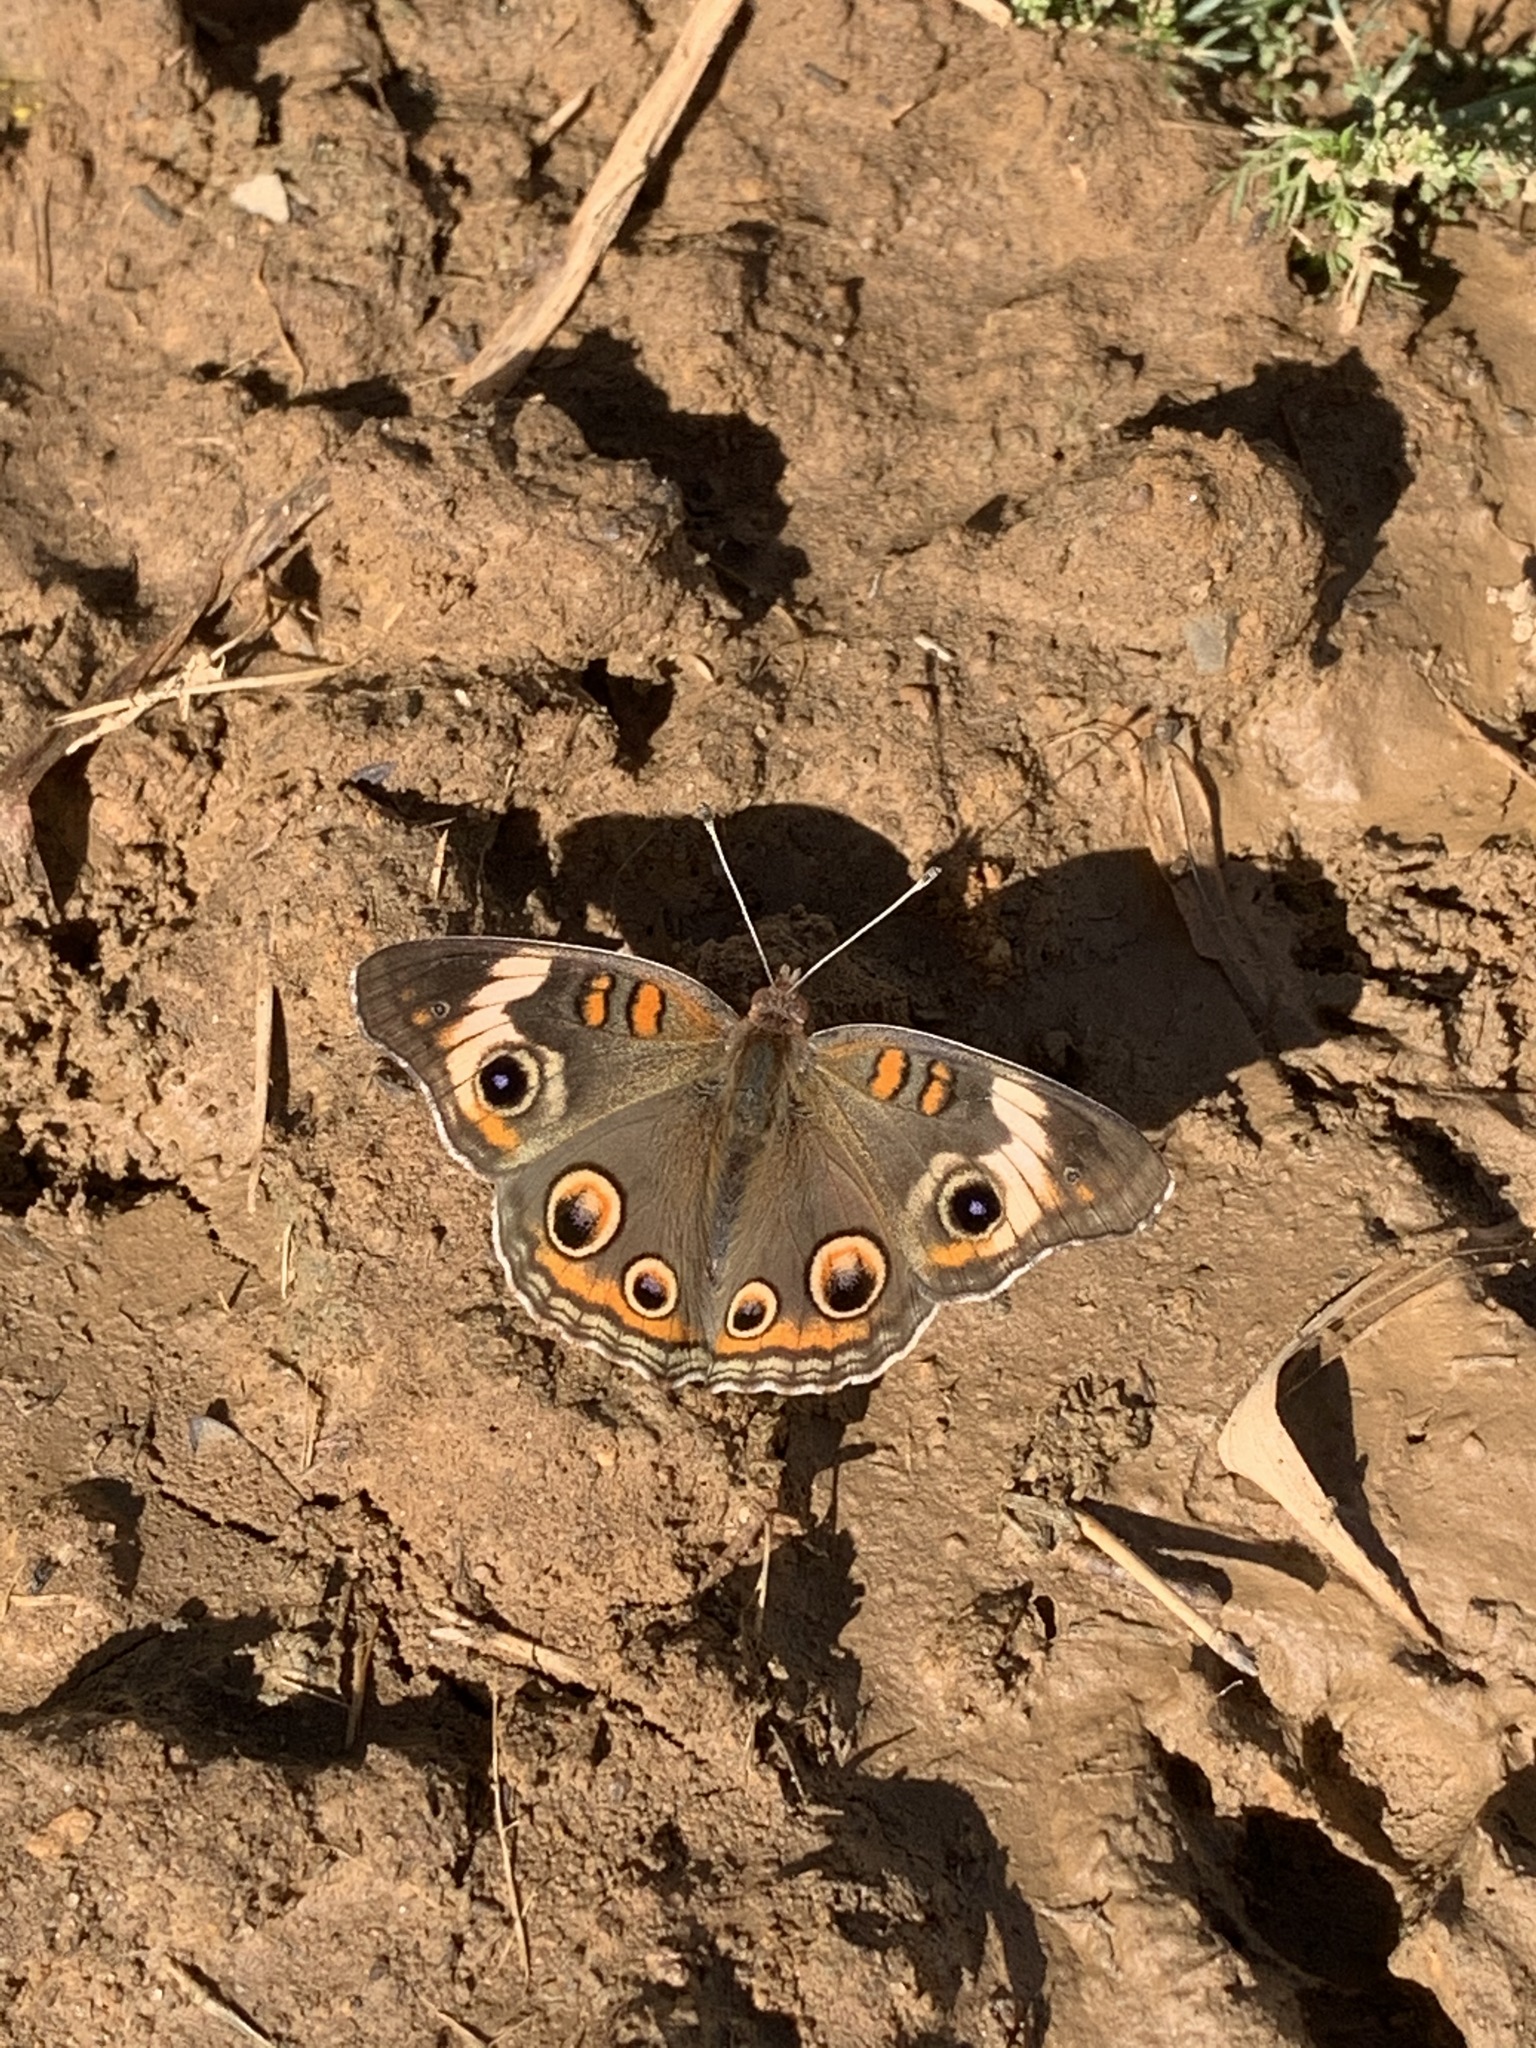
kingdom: Animalia
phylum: Arthropoda
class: Insecta
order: Lepidoptera
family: Nymphalidae
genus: Junonia
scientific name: Junonia coenia
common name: Common buckeye
